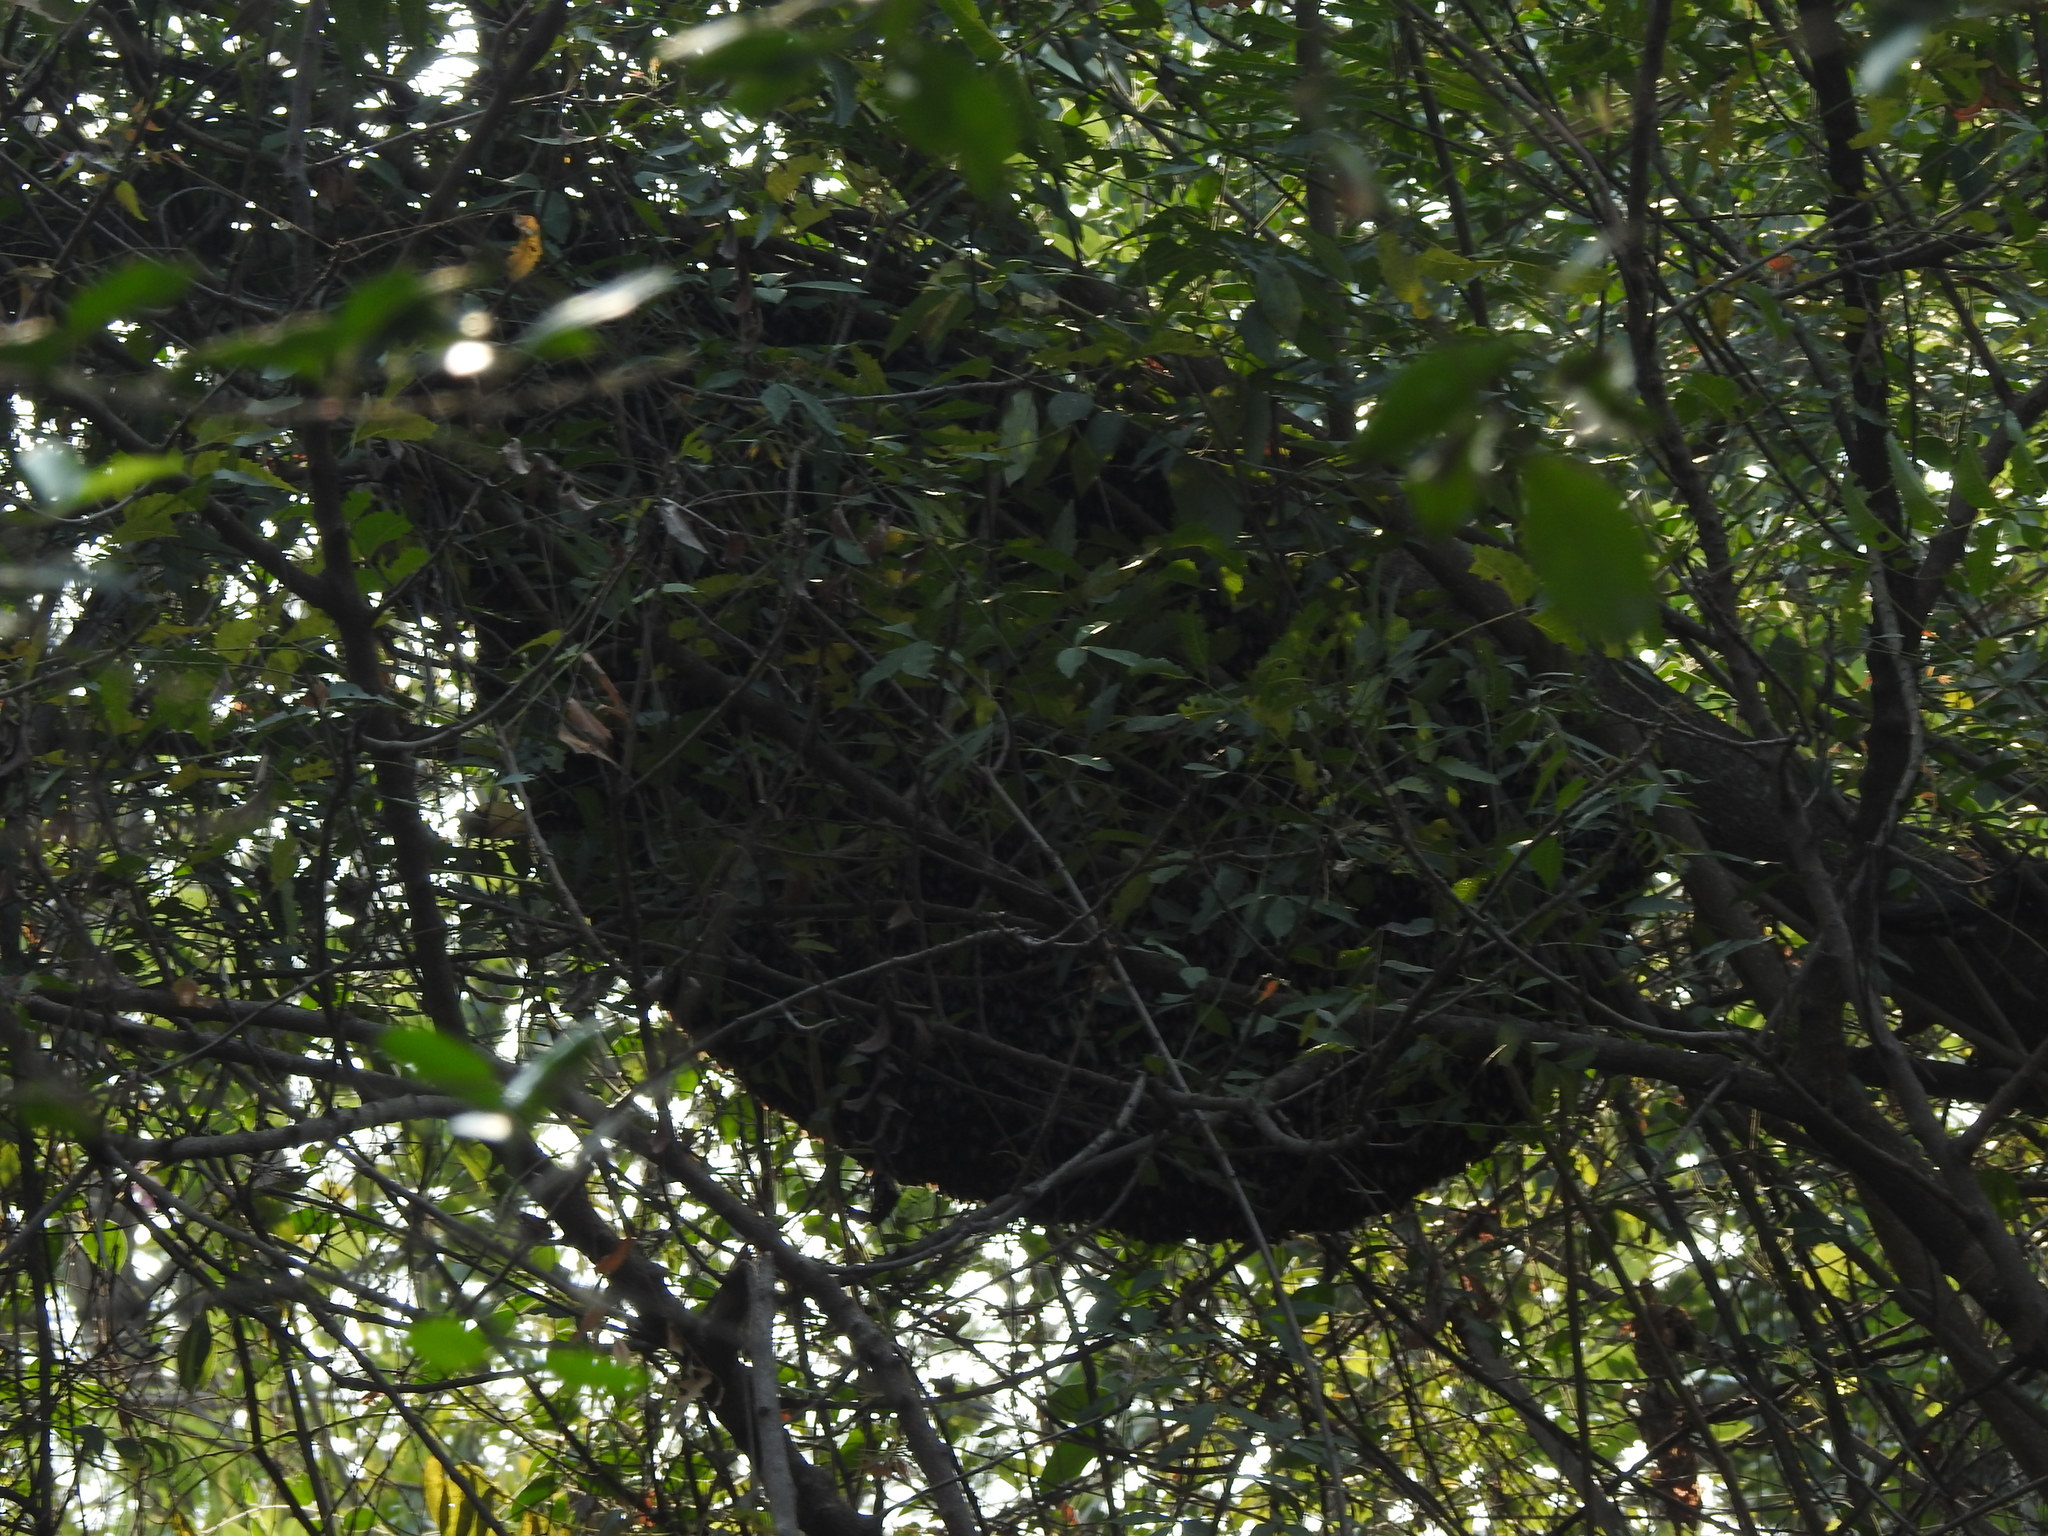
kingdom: Animalia
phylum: Arthropoda
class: Insecta
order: Hymenoptera
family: Apidae
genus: Apis
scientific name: Apis dorsata
